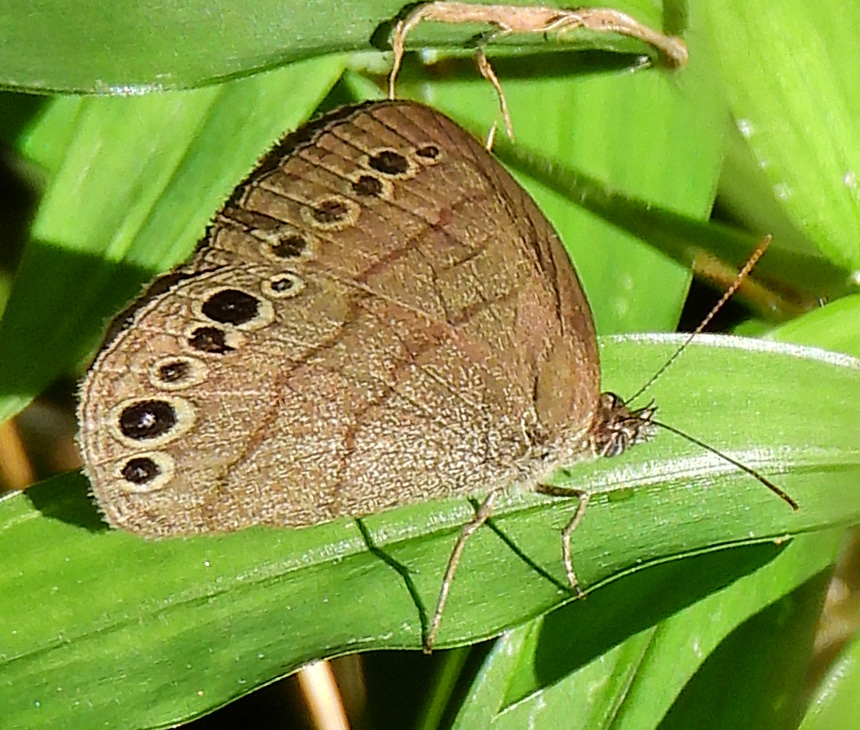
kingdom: Animalia
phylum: Arthropoda
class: Insecta
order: Lepidoptera
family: Nymphalidae
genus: Hermeuptychia
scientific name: Hermeuptychia hermes
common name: Hermes satyr
